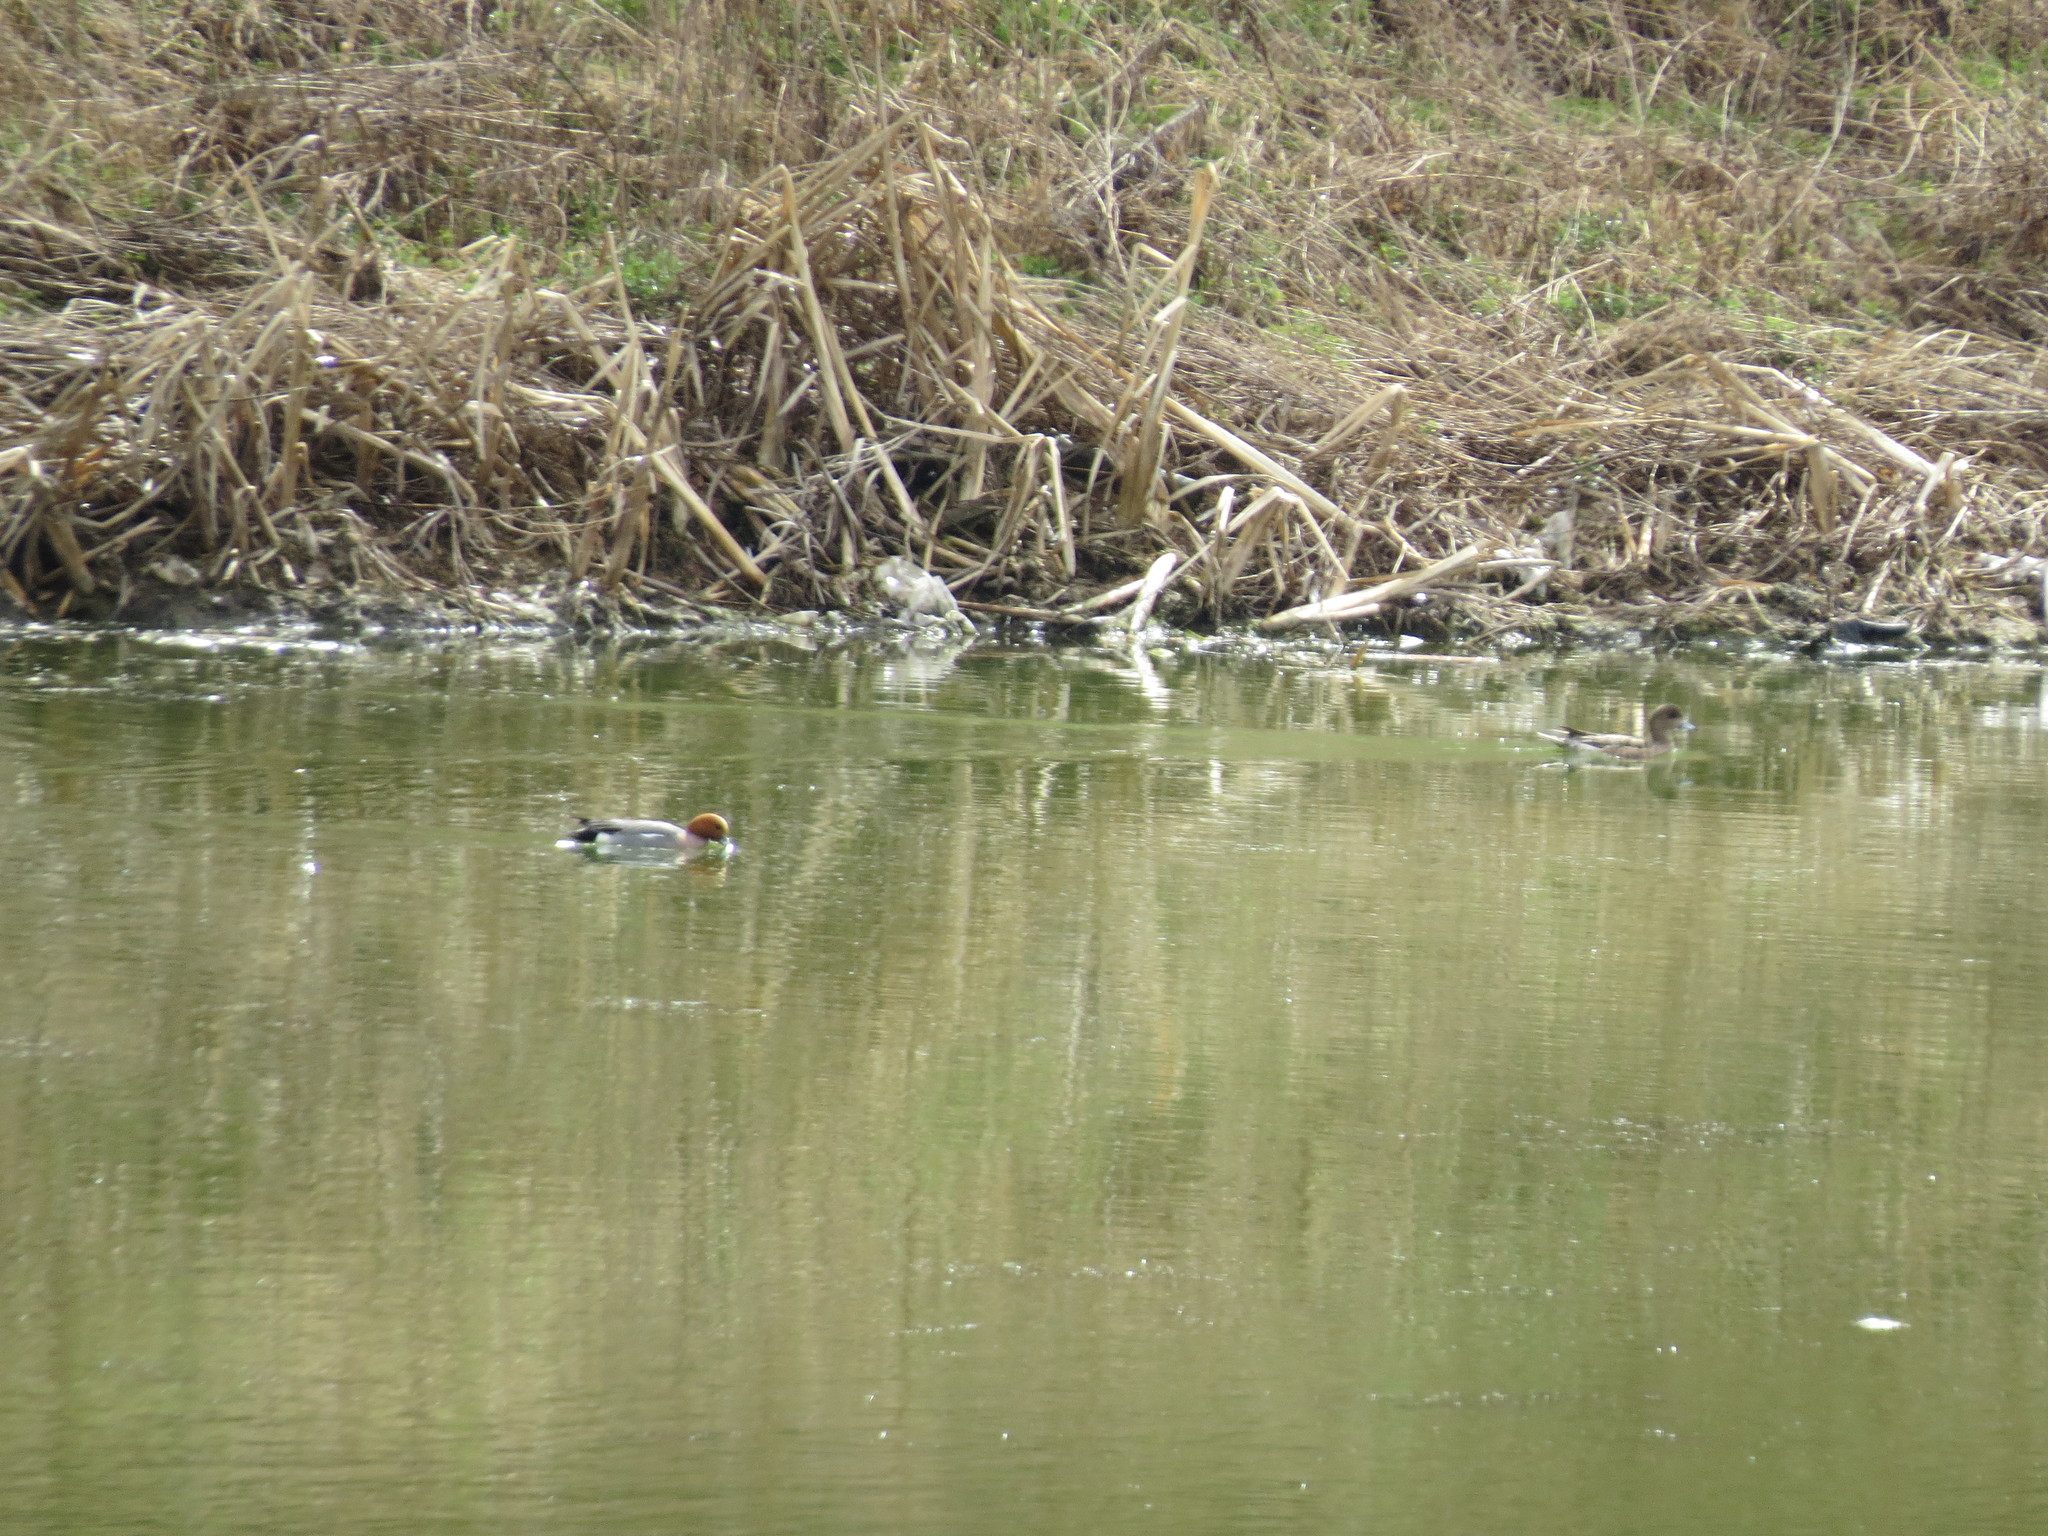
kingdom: Animalia
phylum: Chordata
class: Aves
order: Anseriformes
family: Anatidae
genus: Mareca
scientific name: Mareca penelope
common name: Eurasian wigeon
